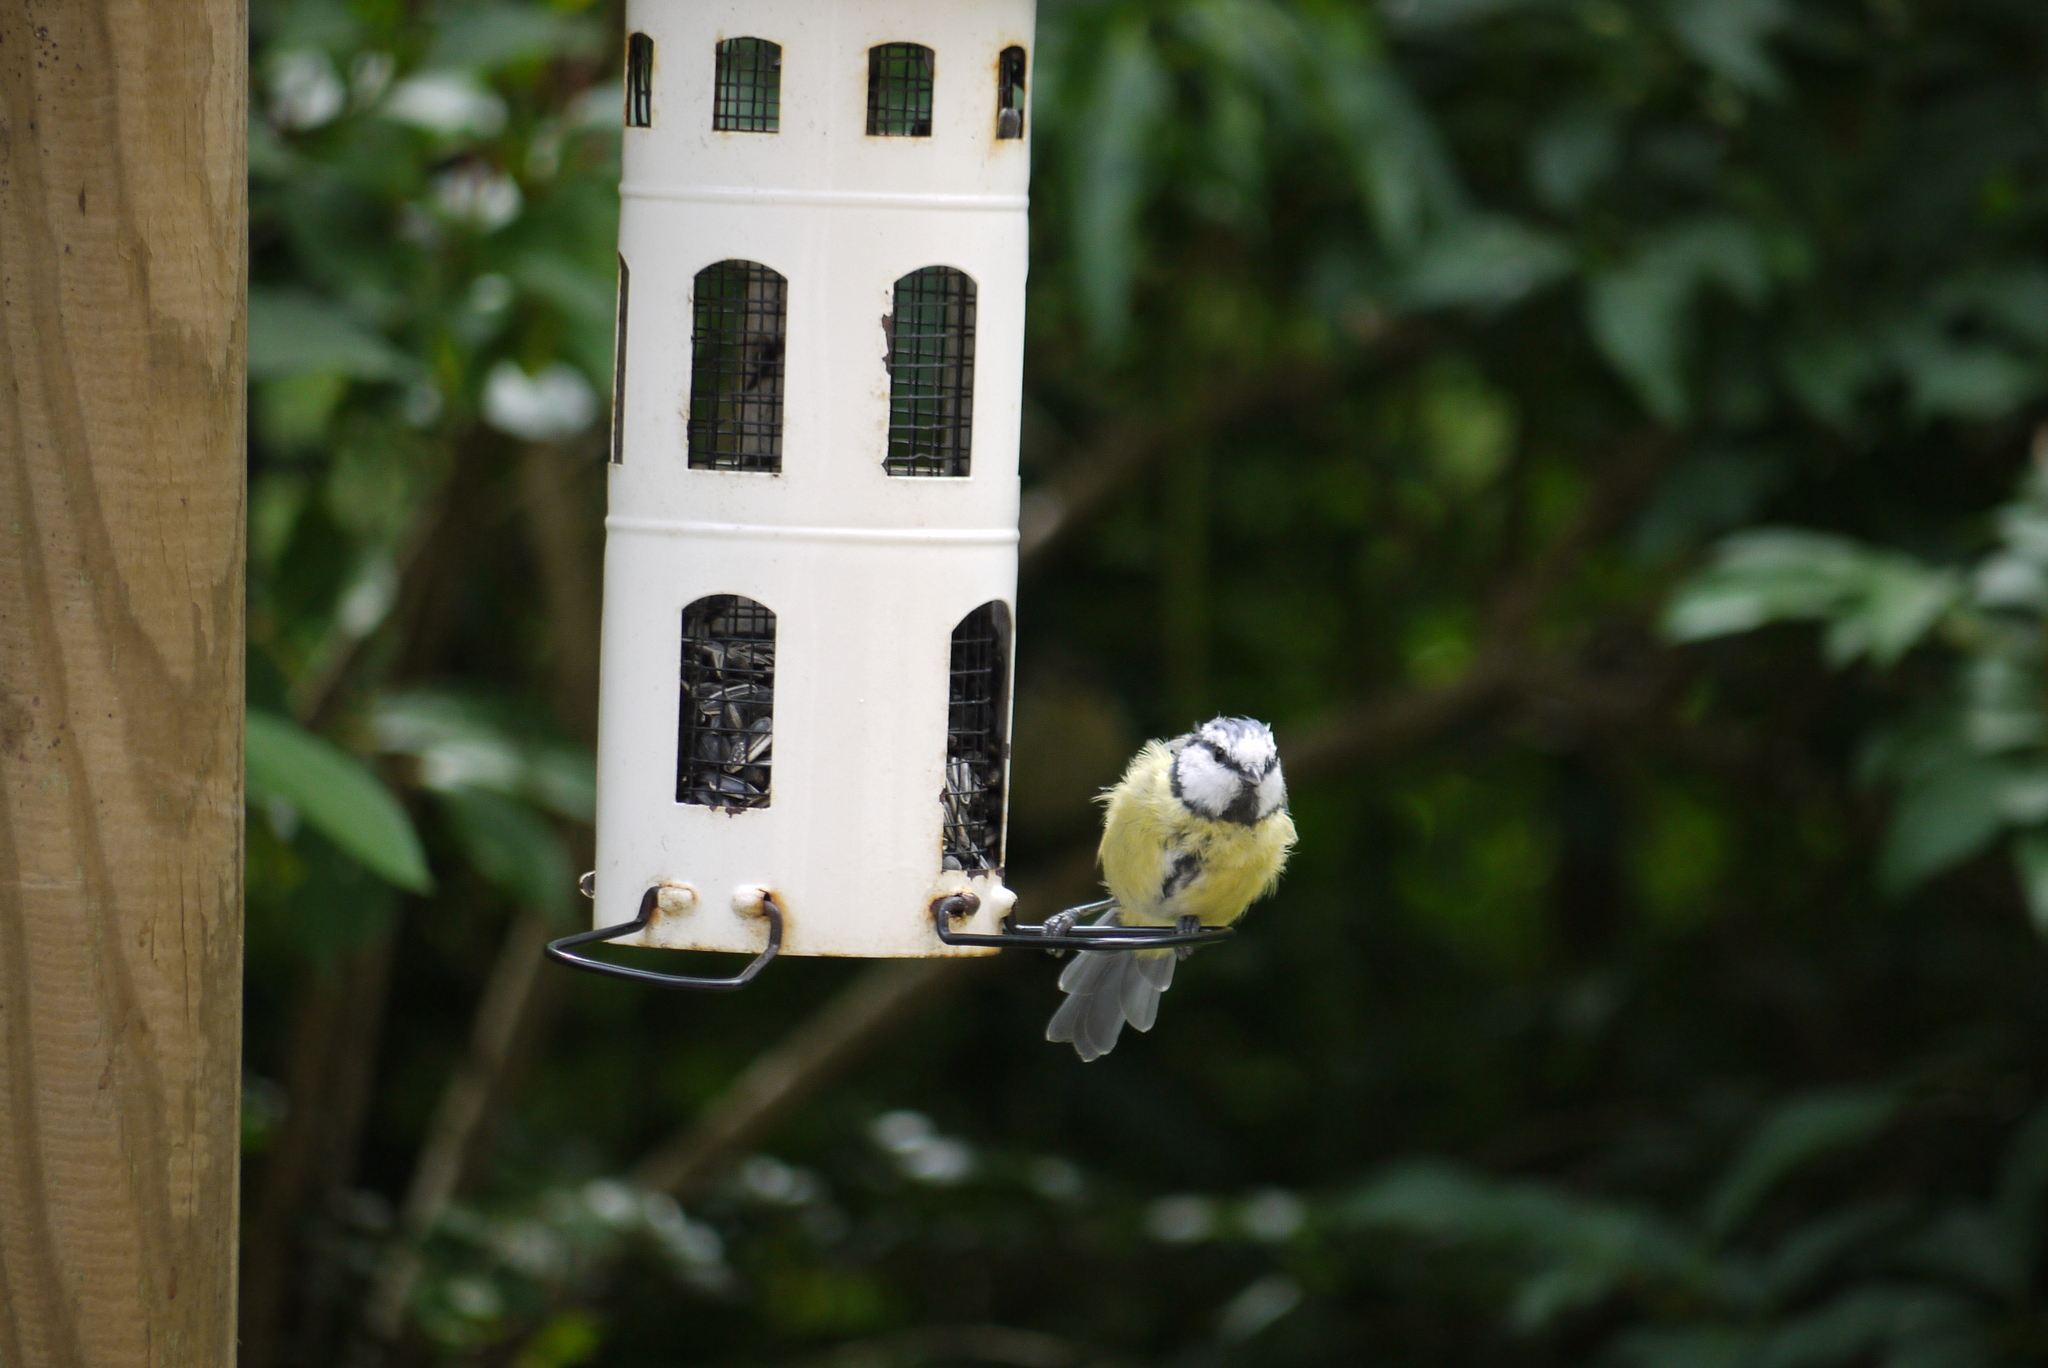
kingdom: Animalia
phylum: Chordata
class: Aves
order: Passeriformes
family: Paridae
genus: Cyanistes
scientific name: Cyanistes caeruleus
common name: Eurasian blue tit
